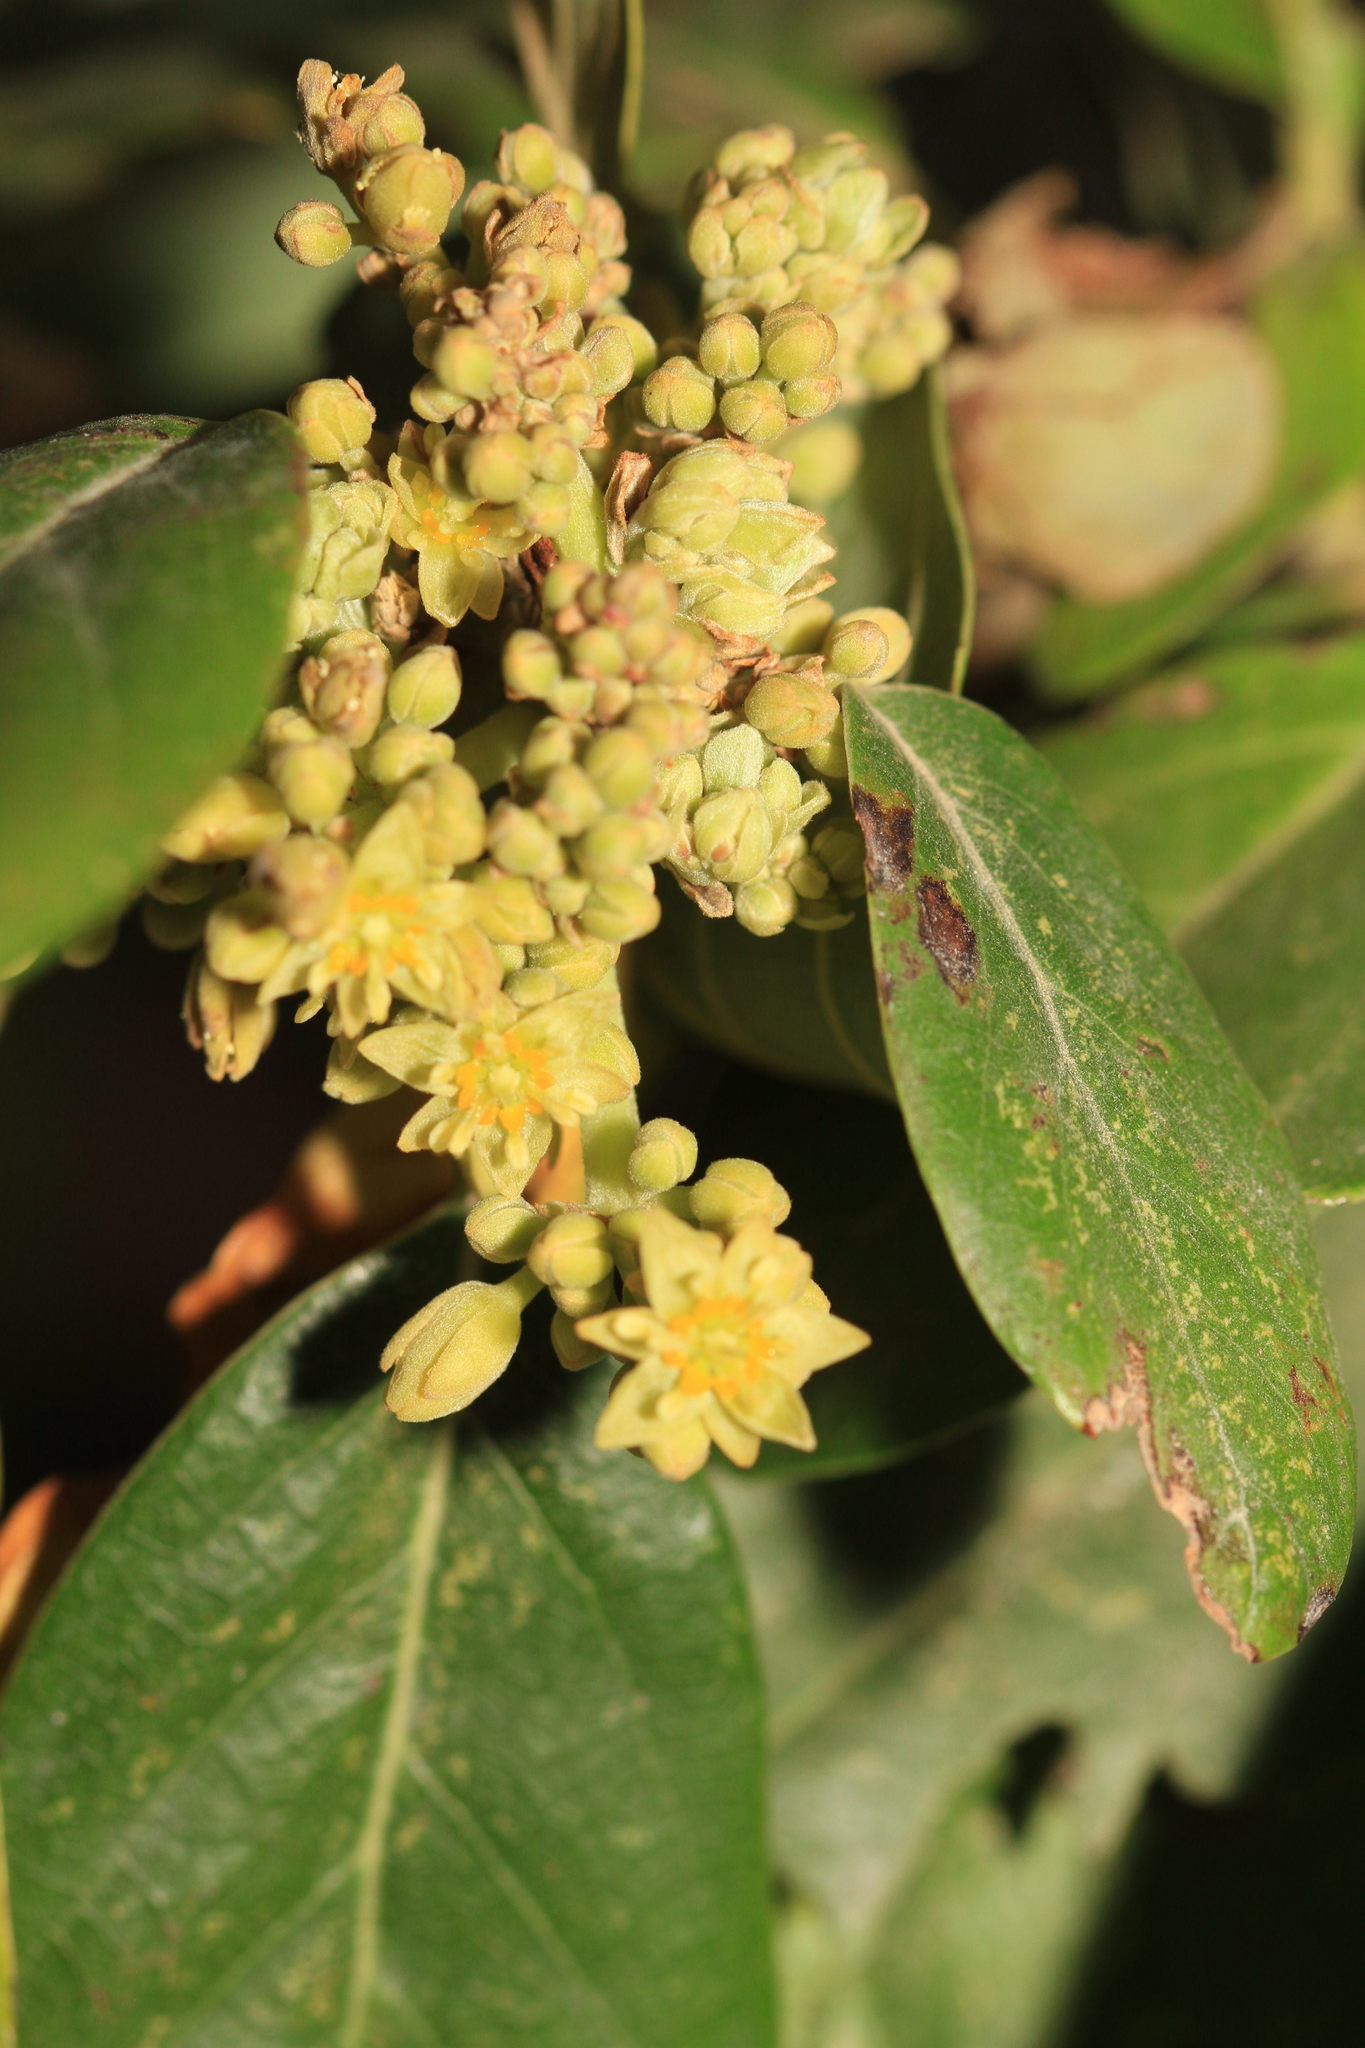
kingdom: Plantae
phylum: Tracheophyta
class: Magnoliopsida
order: Laurales
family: Lauraceae
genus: Persea
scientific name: Persea americana
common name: Avocado
